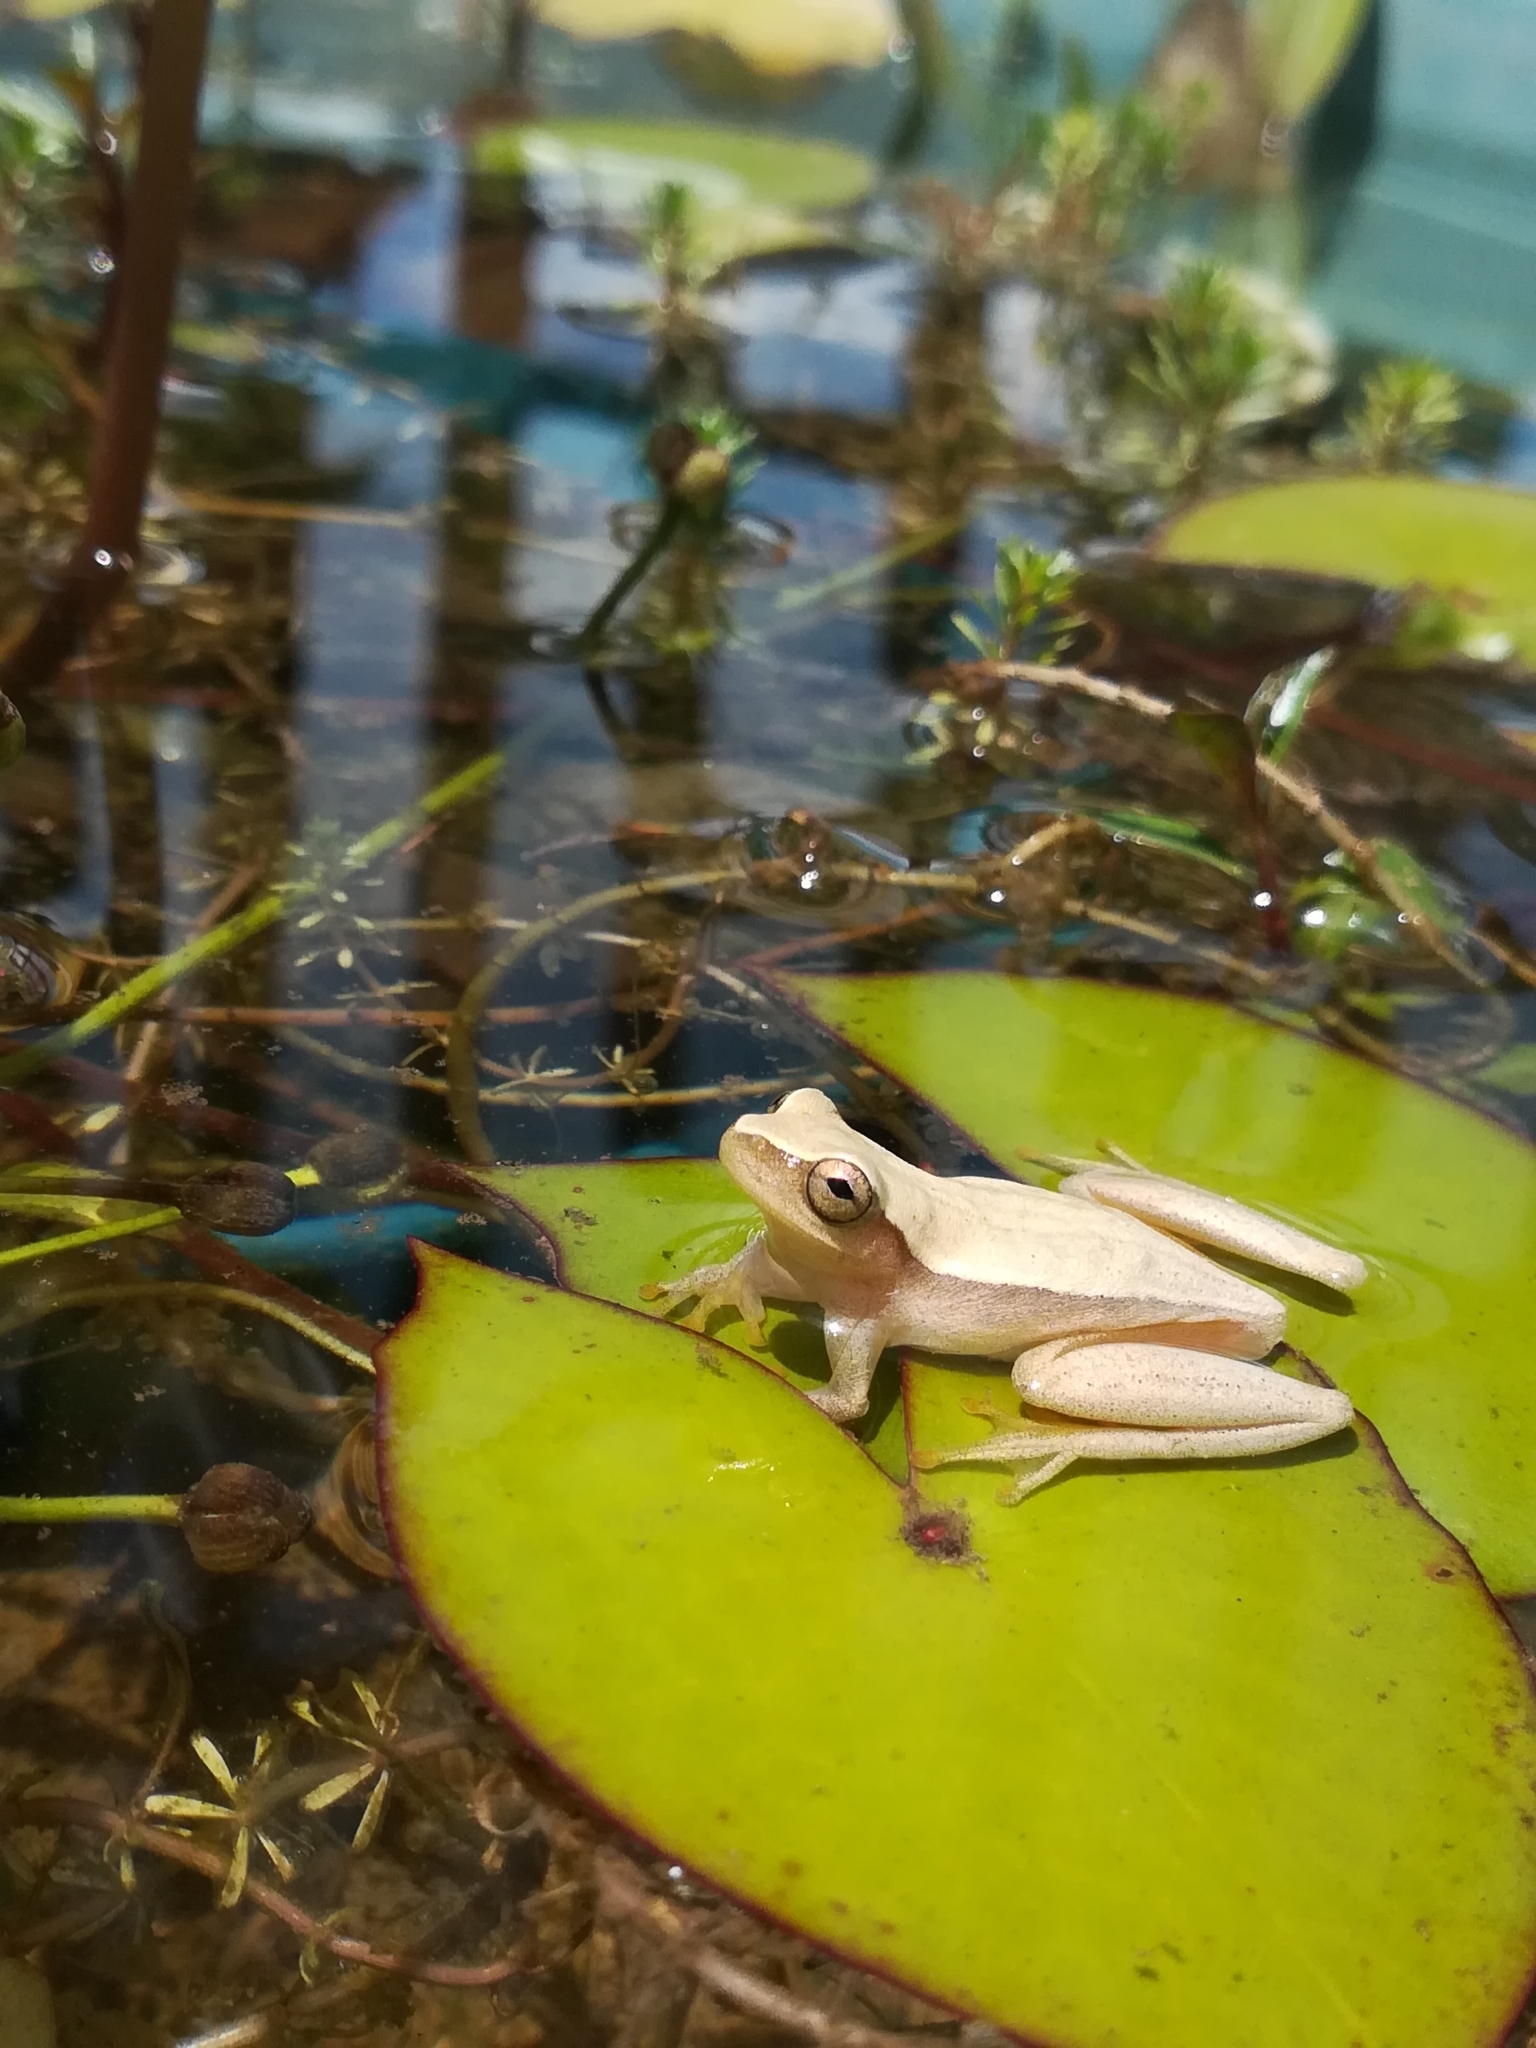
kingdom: Animalia
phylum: Chordata
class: Amphibia
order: Anura
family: Hylidae
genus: Dendropsophus
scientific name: Dendropsophus microcephalus
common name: Small-headed treefrog
